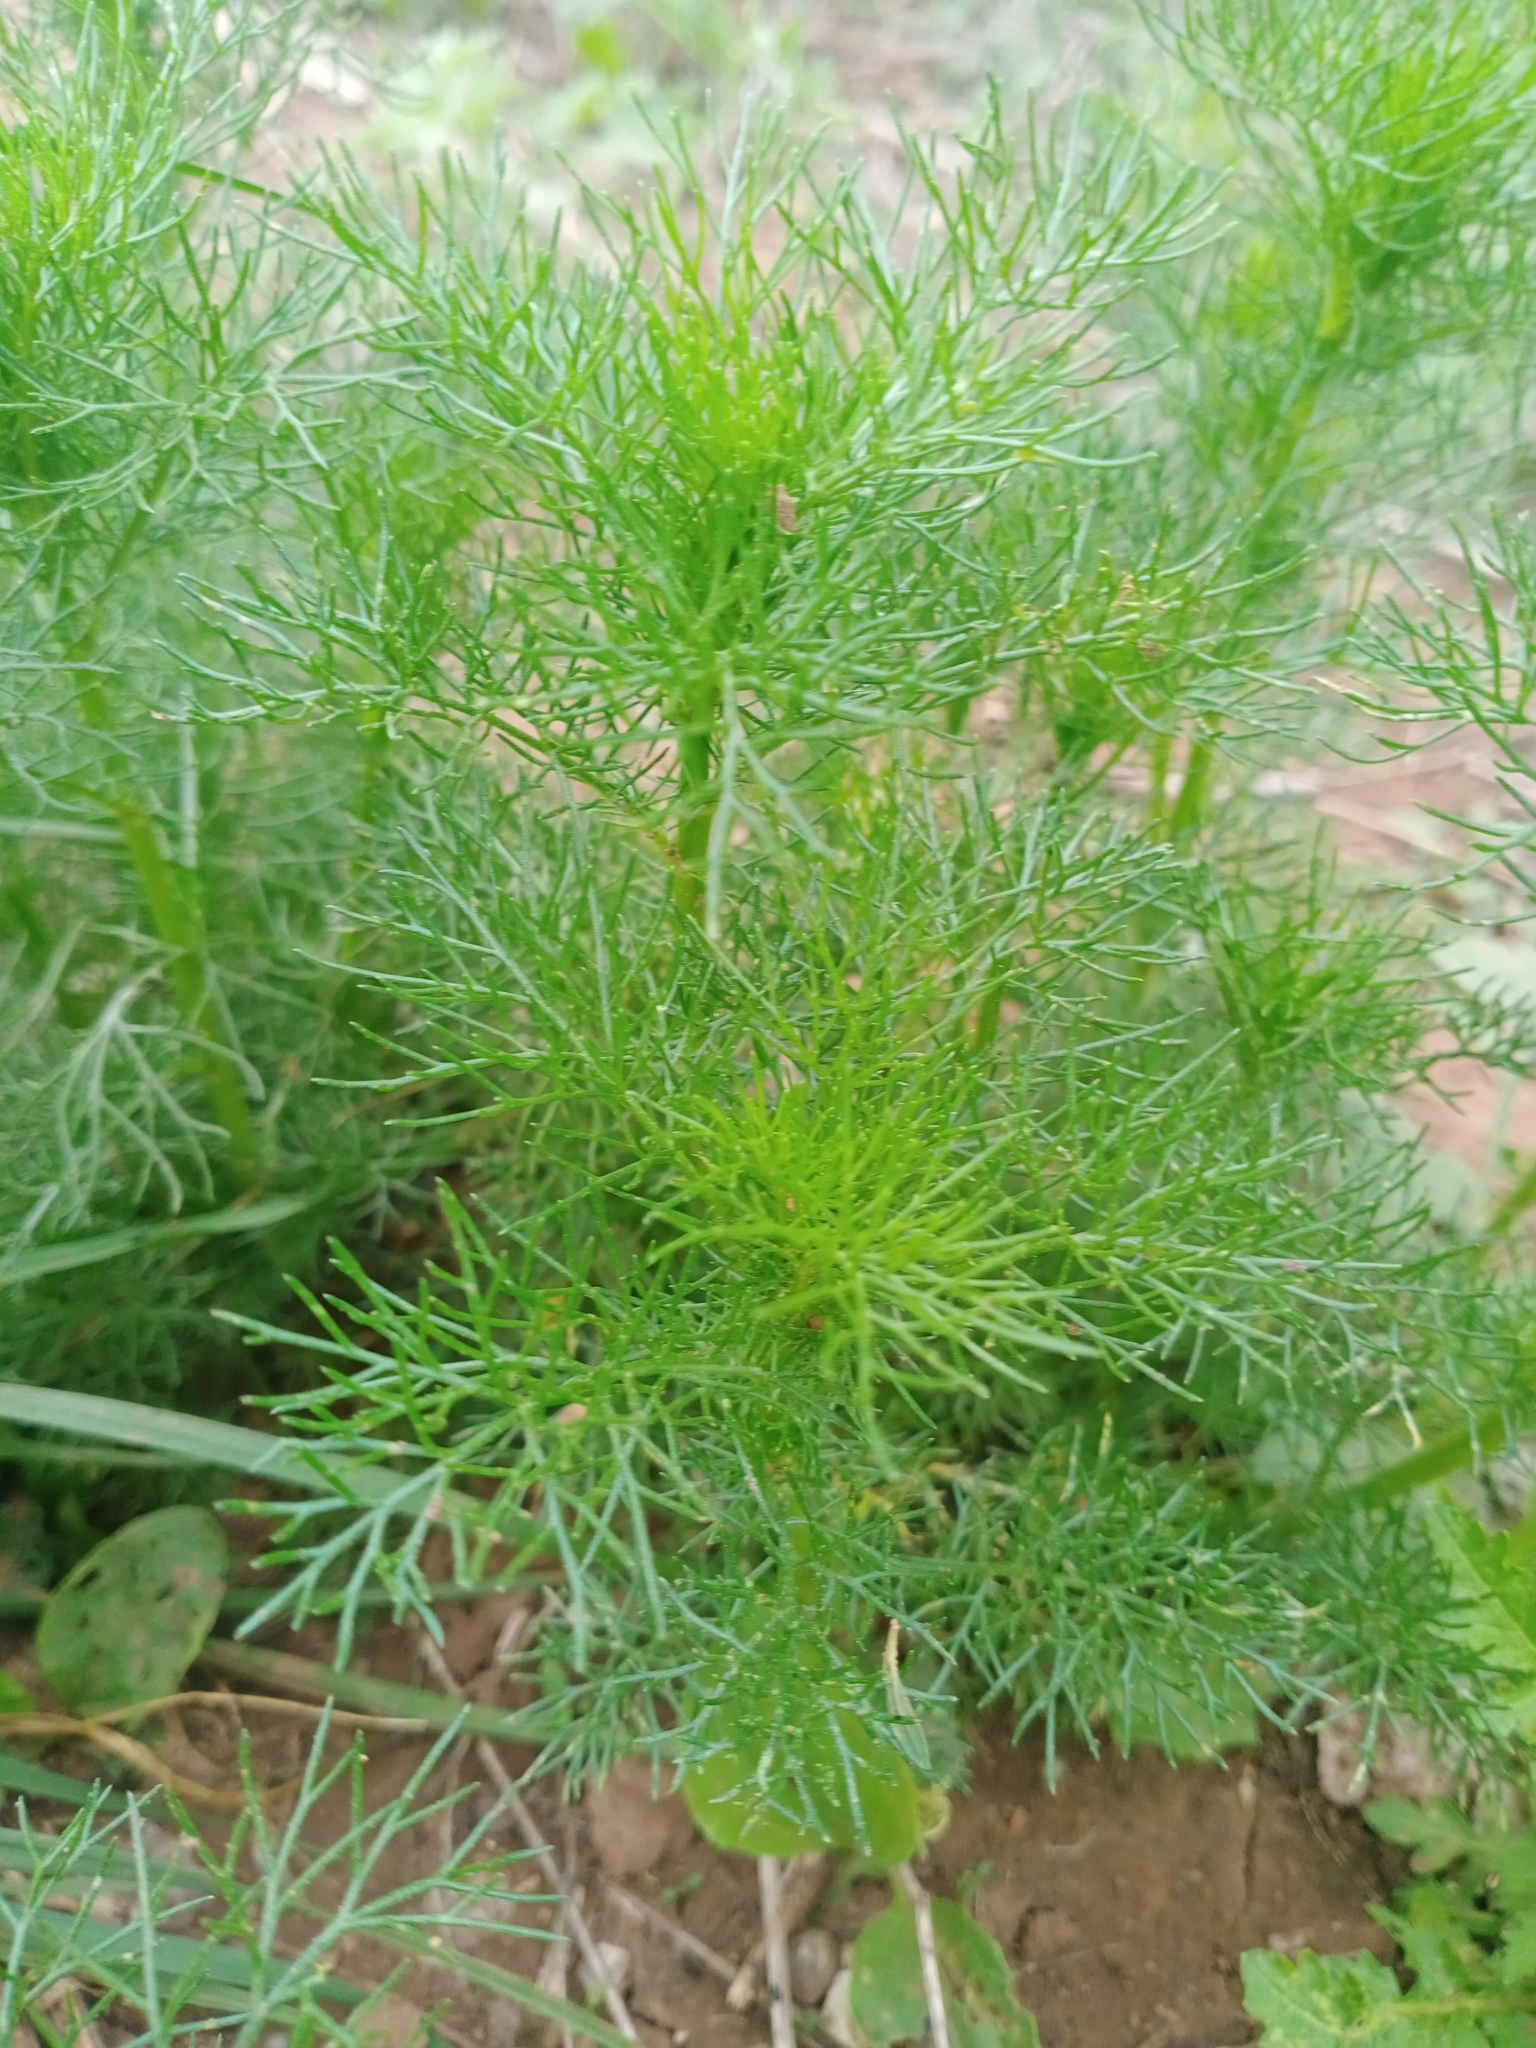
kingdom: Plantae
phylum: Tracheophyta
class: Magnoliopsida
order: Asterales
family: Asteraceae
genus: Tripleurospermum
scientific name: Tripleurospermum inodorum
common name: Scentless mayweed
